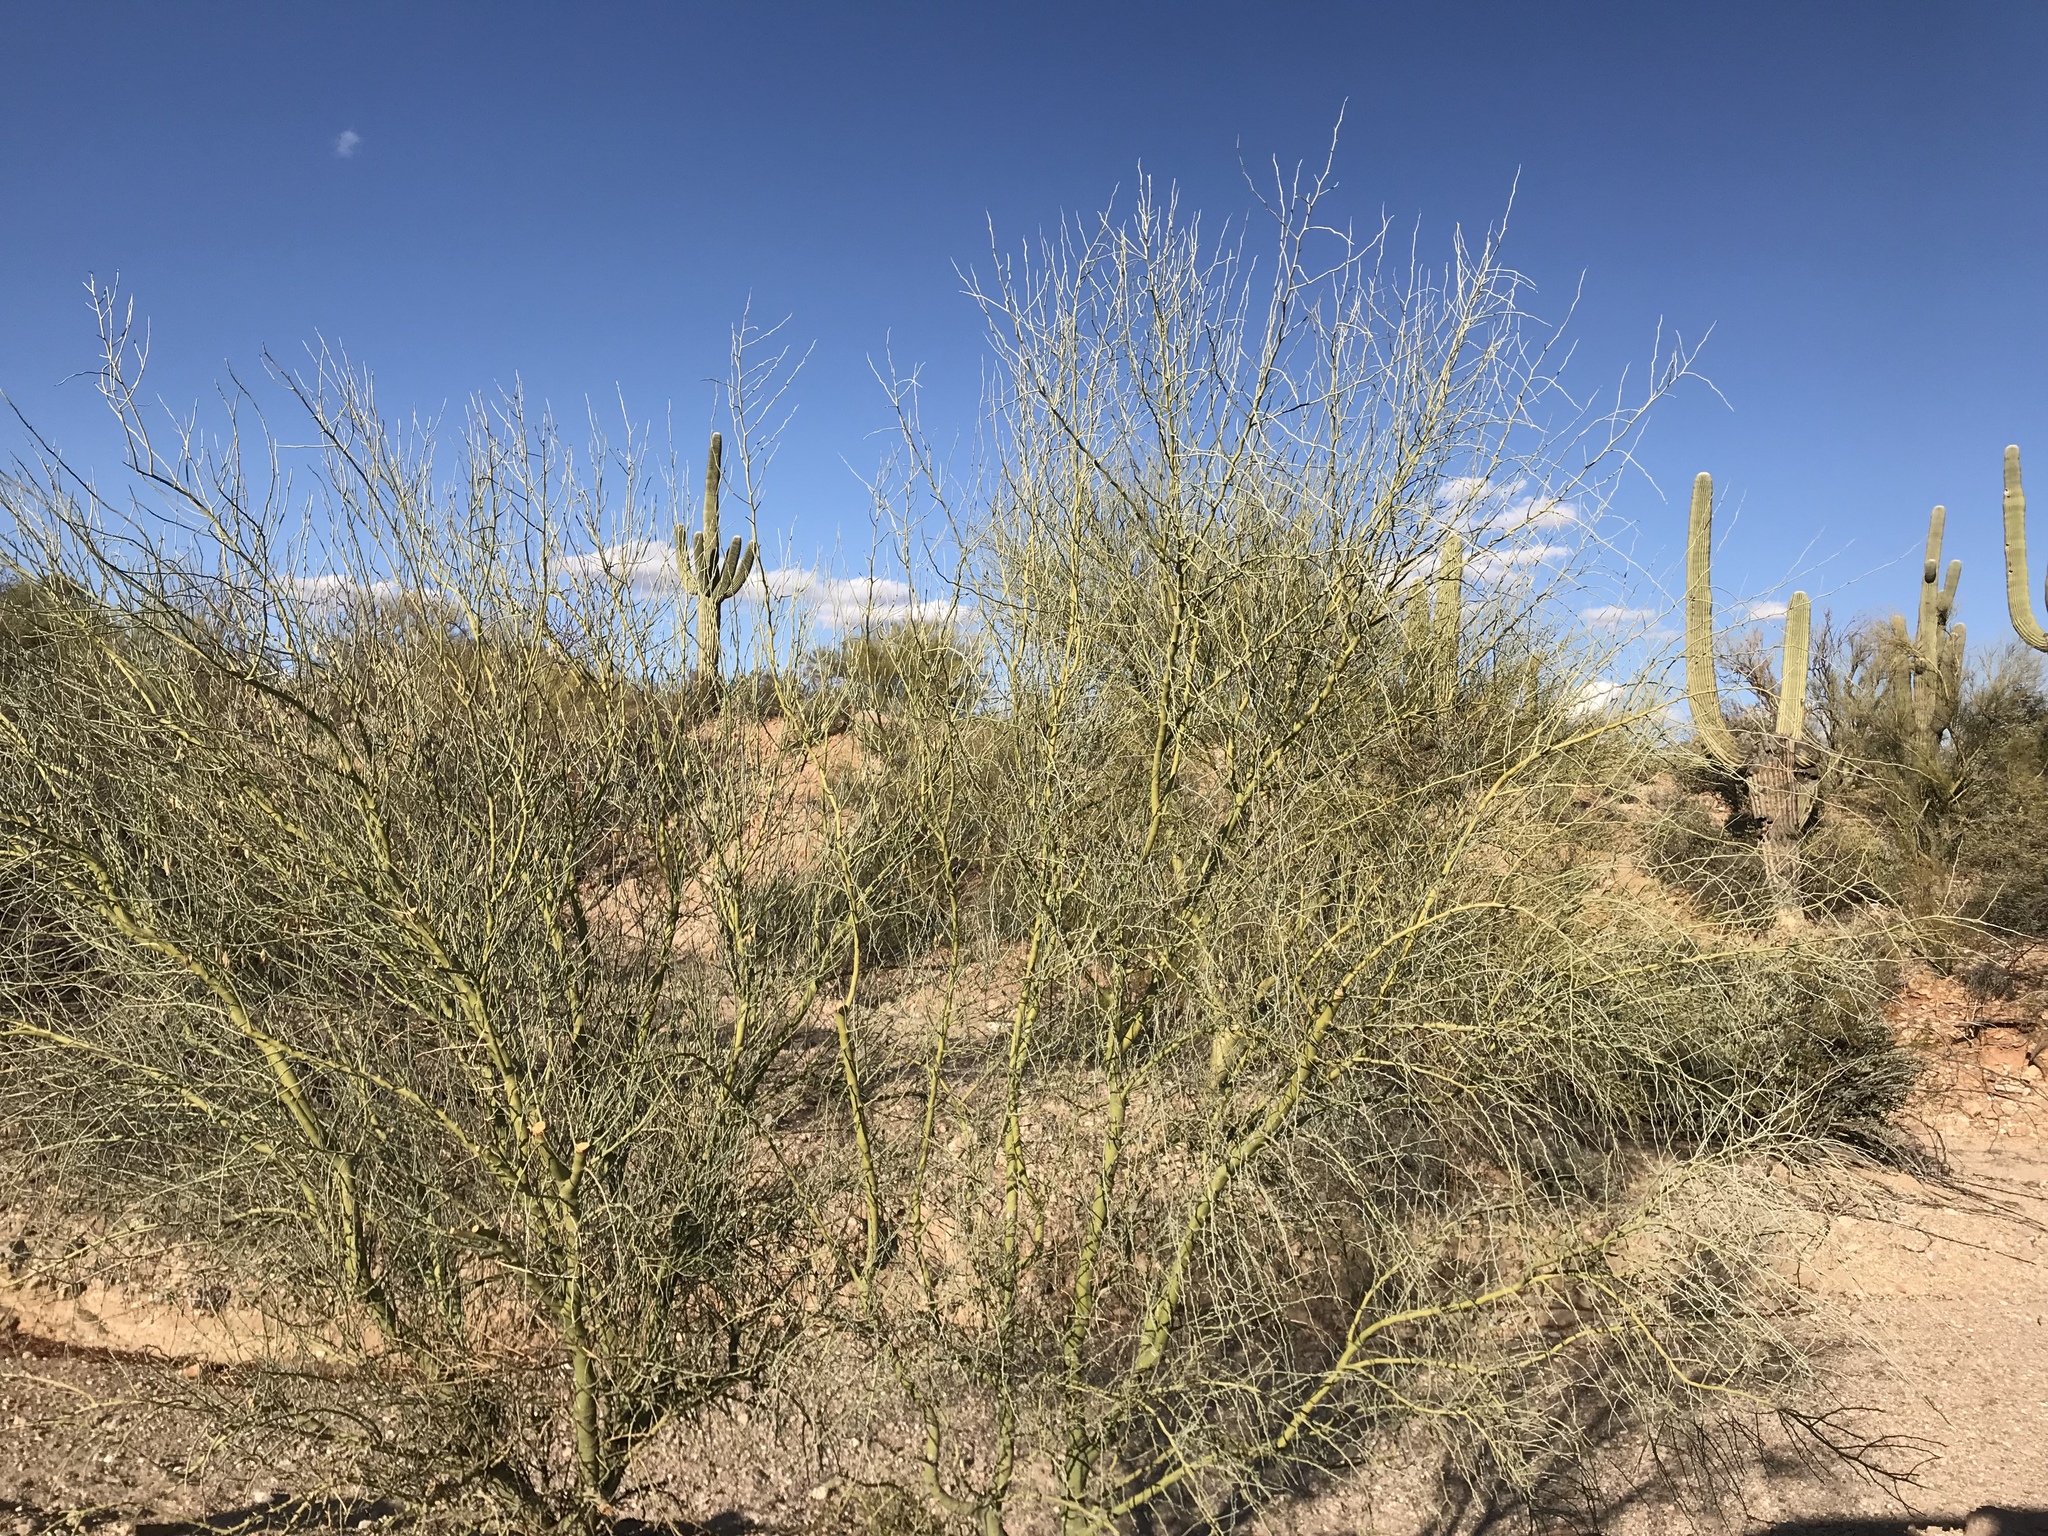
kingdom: Plantae
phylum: Tracheophyta
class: Magnoliopsida
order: Fabales
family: Fabaceae
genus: Parkinsonia
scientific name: Parkinsonia florida
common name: Blue paloverde
